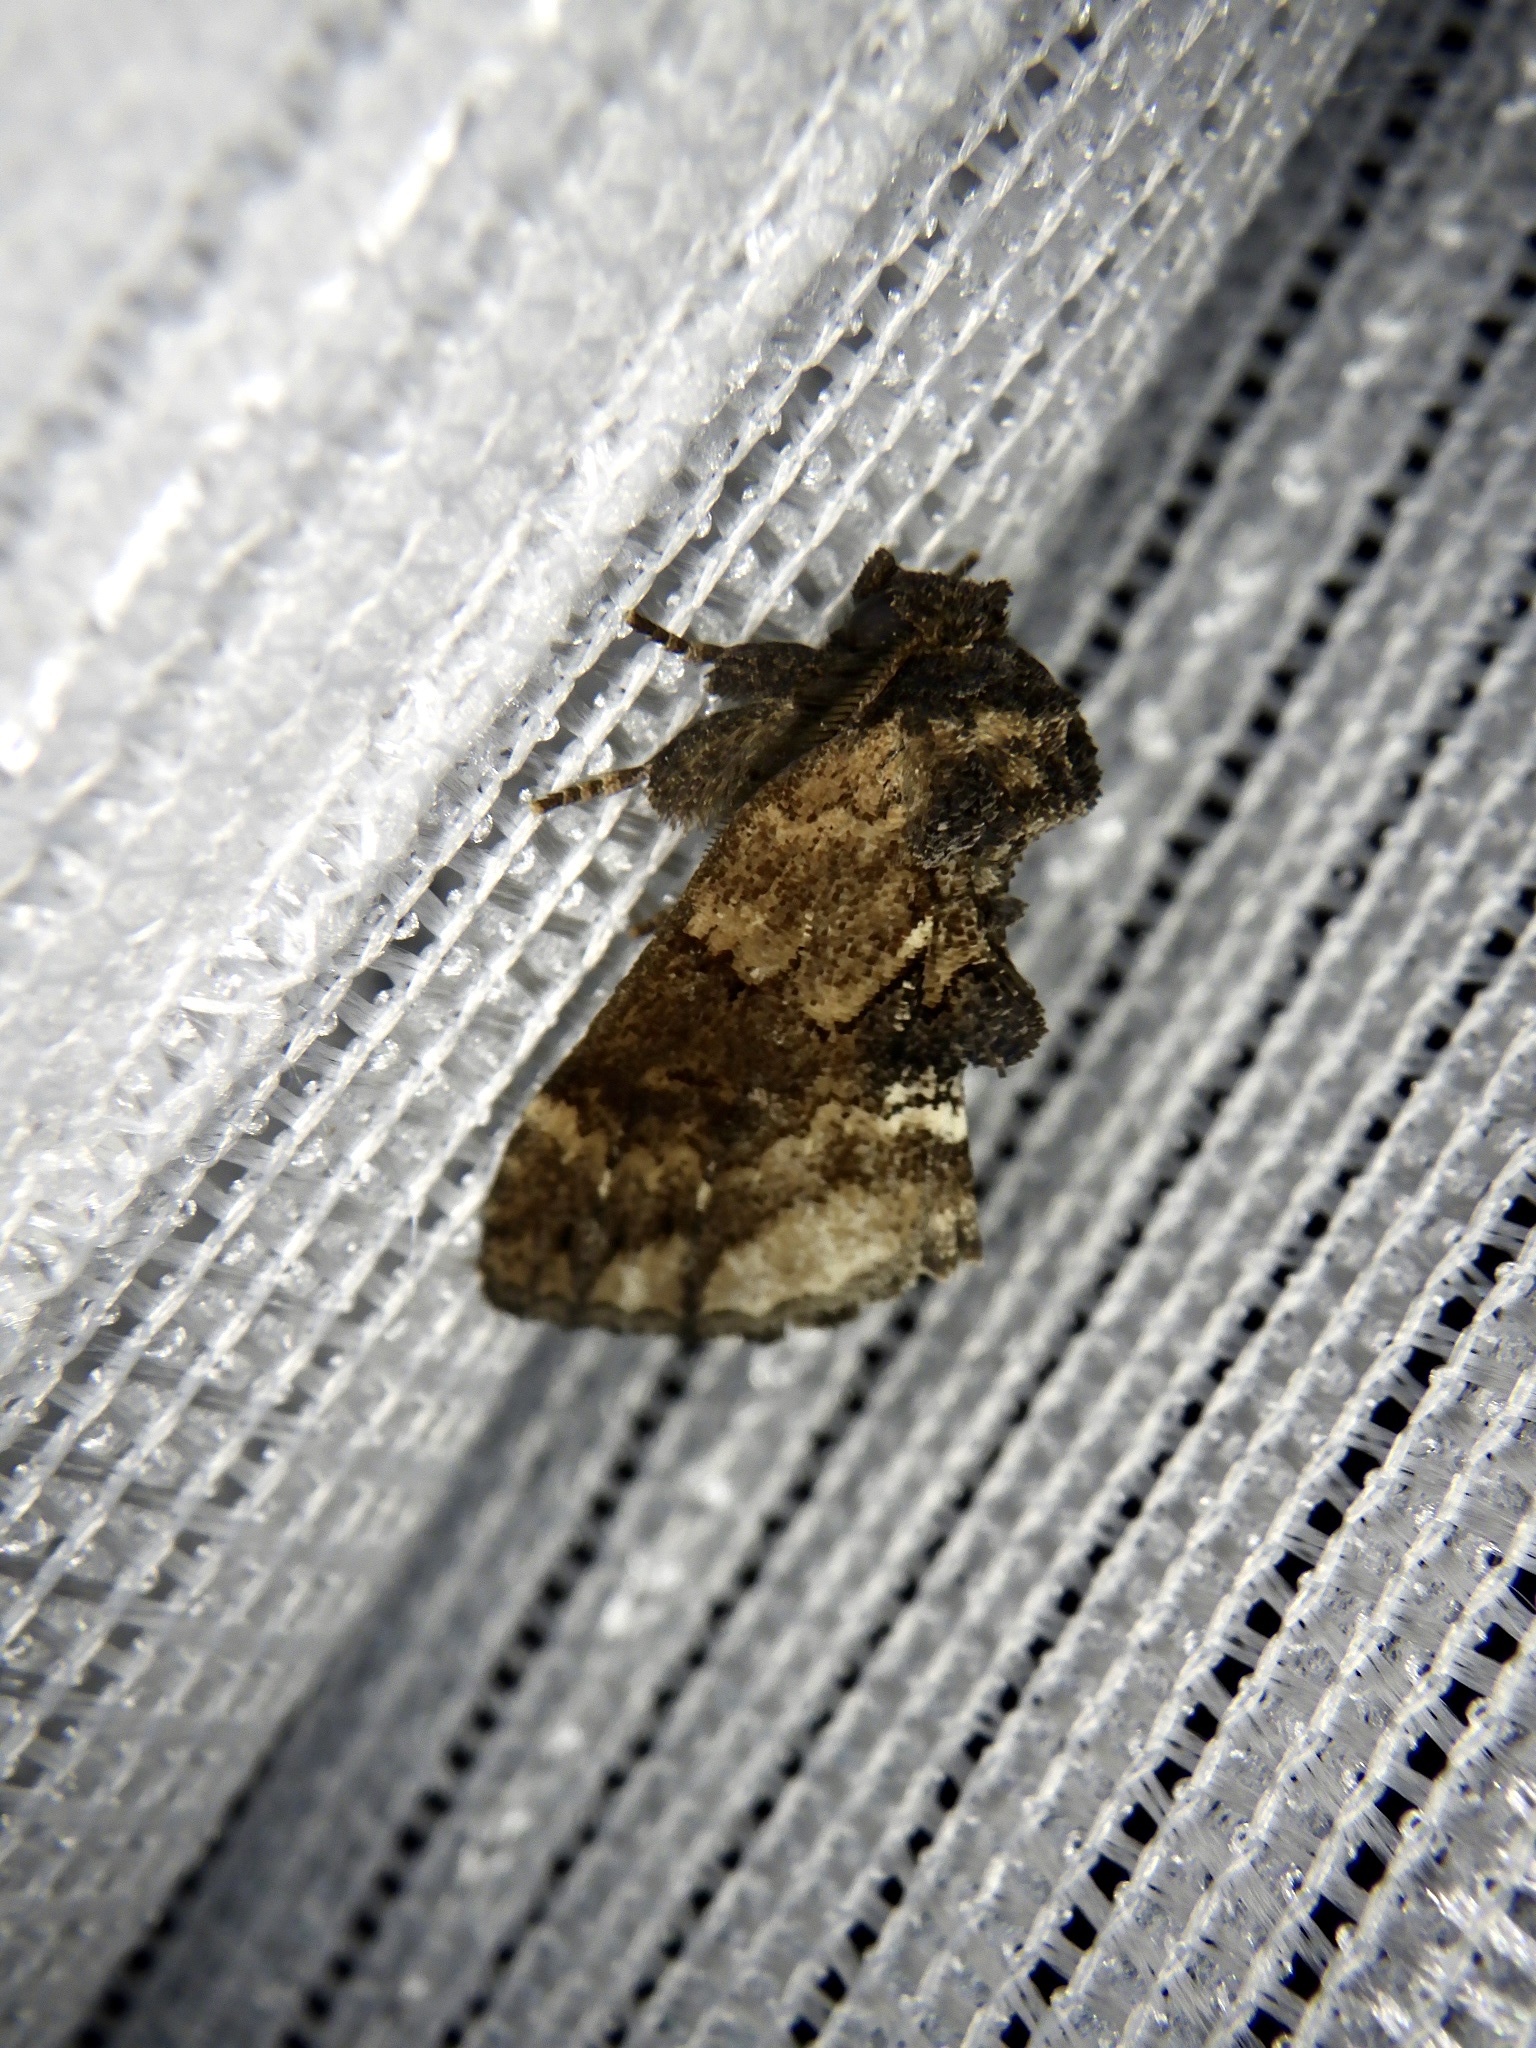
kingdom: Animalia
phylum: Arthropoda
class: Insecta
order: Lepidoptera
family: Notodontidae
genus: Lophontosia
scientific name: Lophontosia
